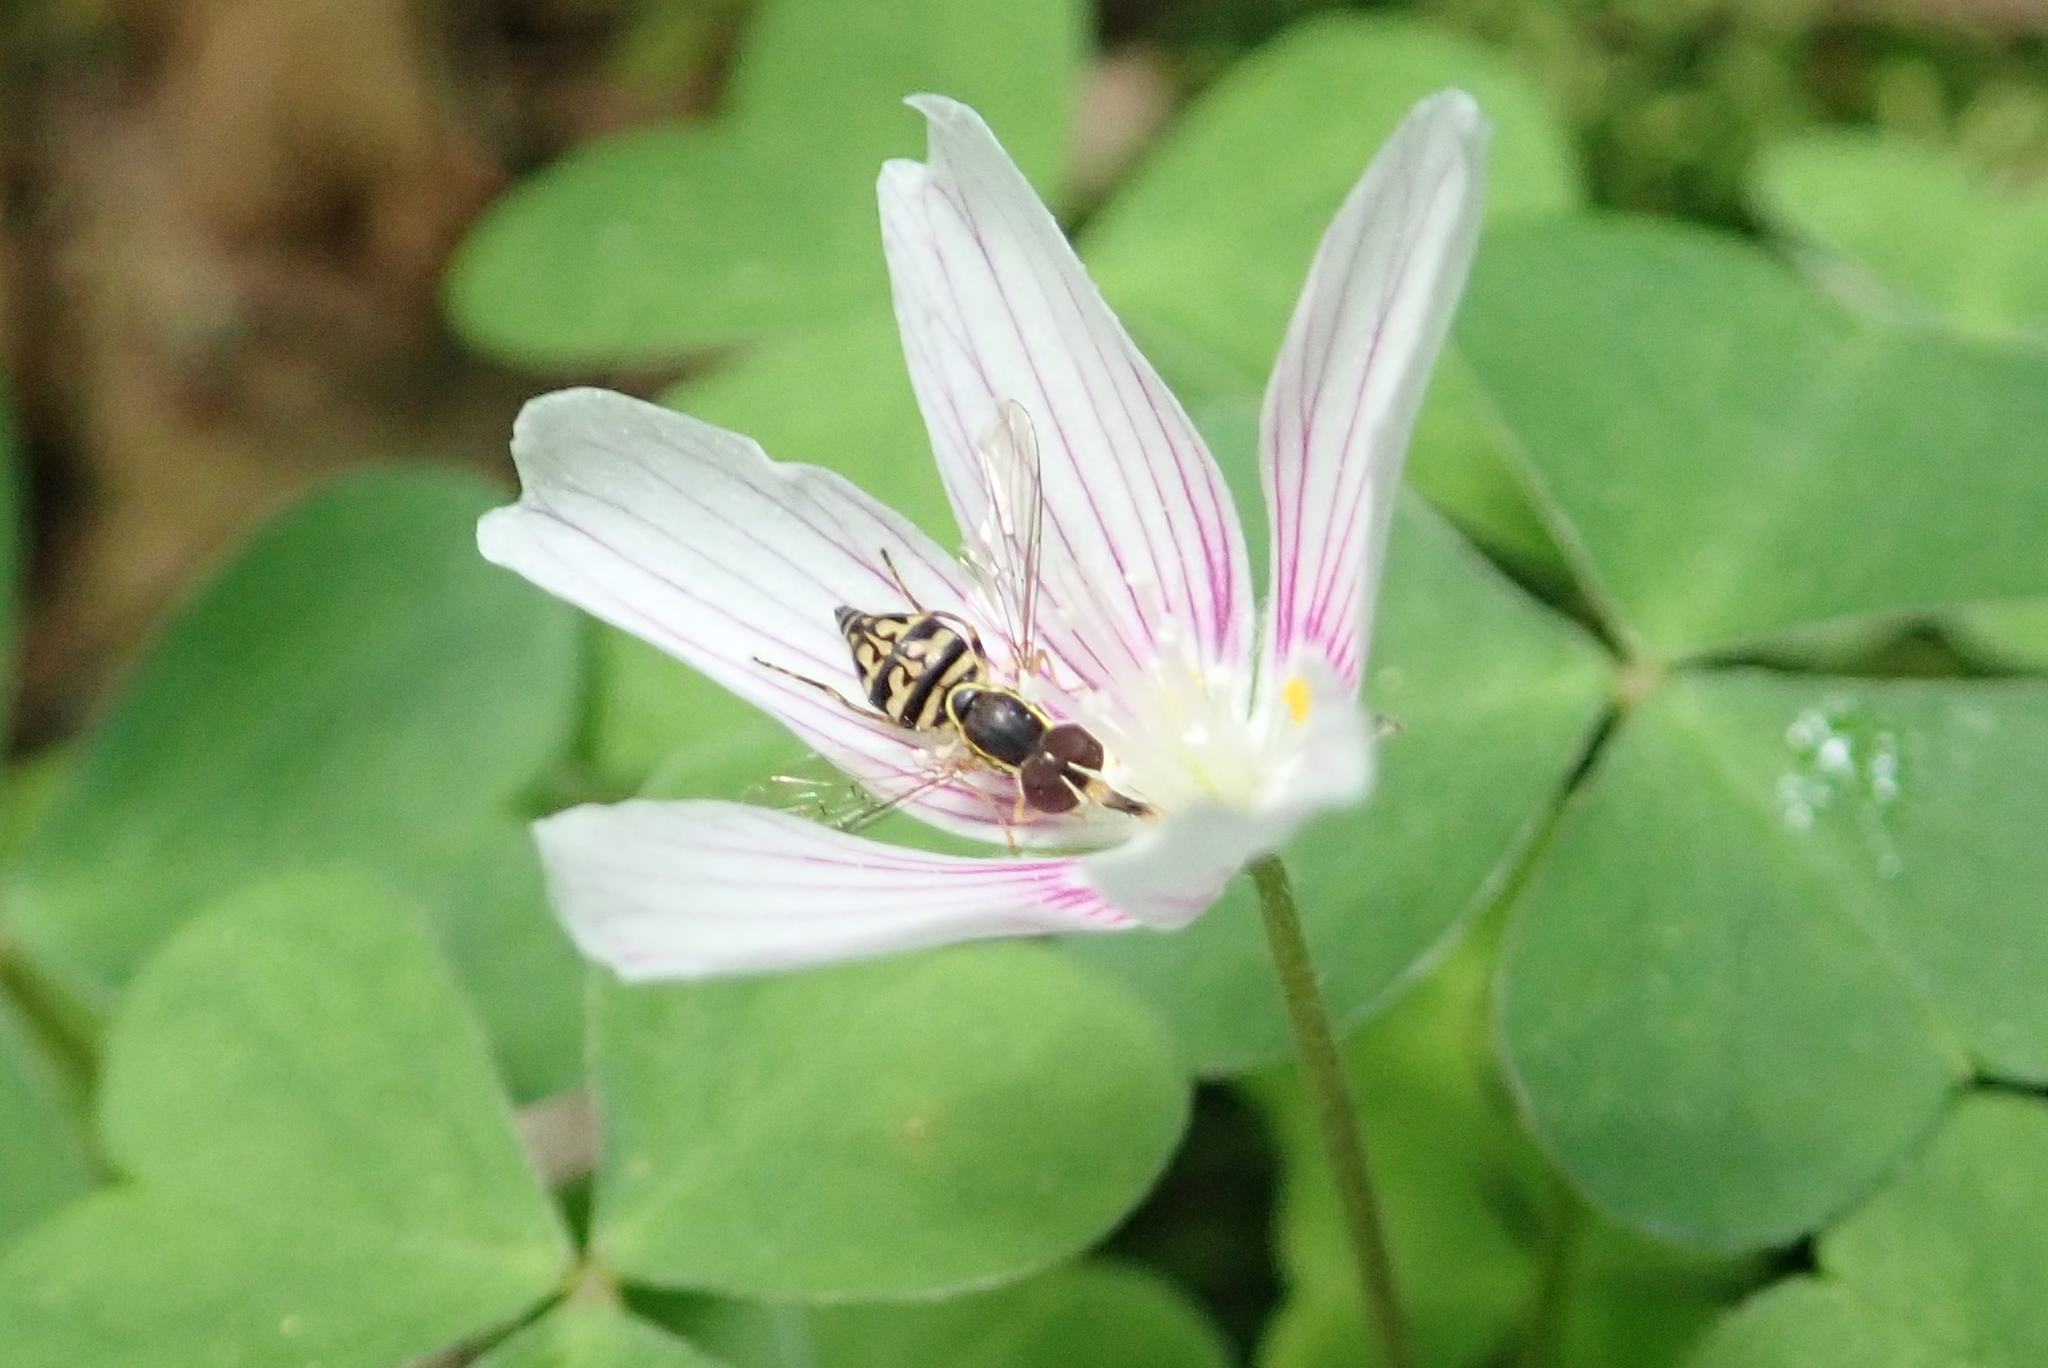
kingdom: Animalia
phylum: Arthropoda
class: Insecta
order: Diptera
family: Syrphidae
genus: Toxomerus
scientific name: Toxomerus geminatus
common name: Eastern calligrapher
